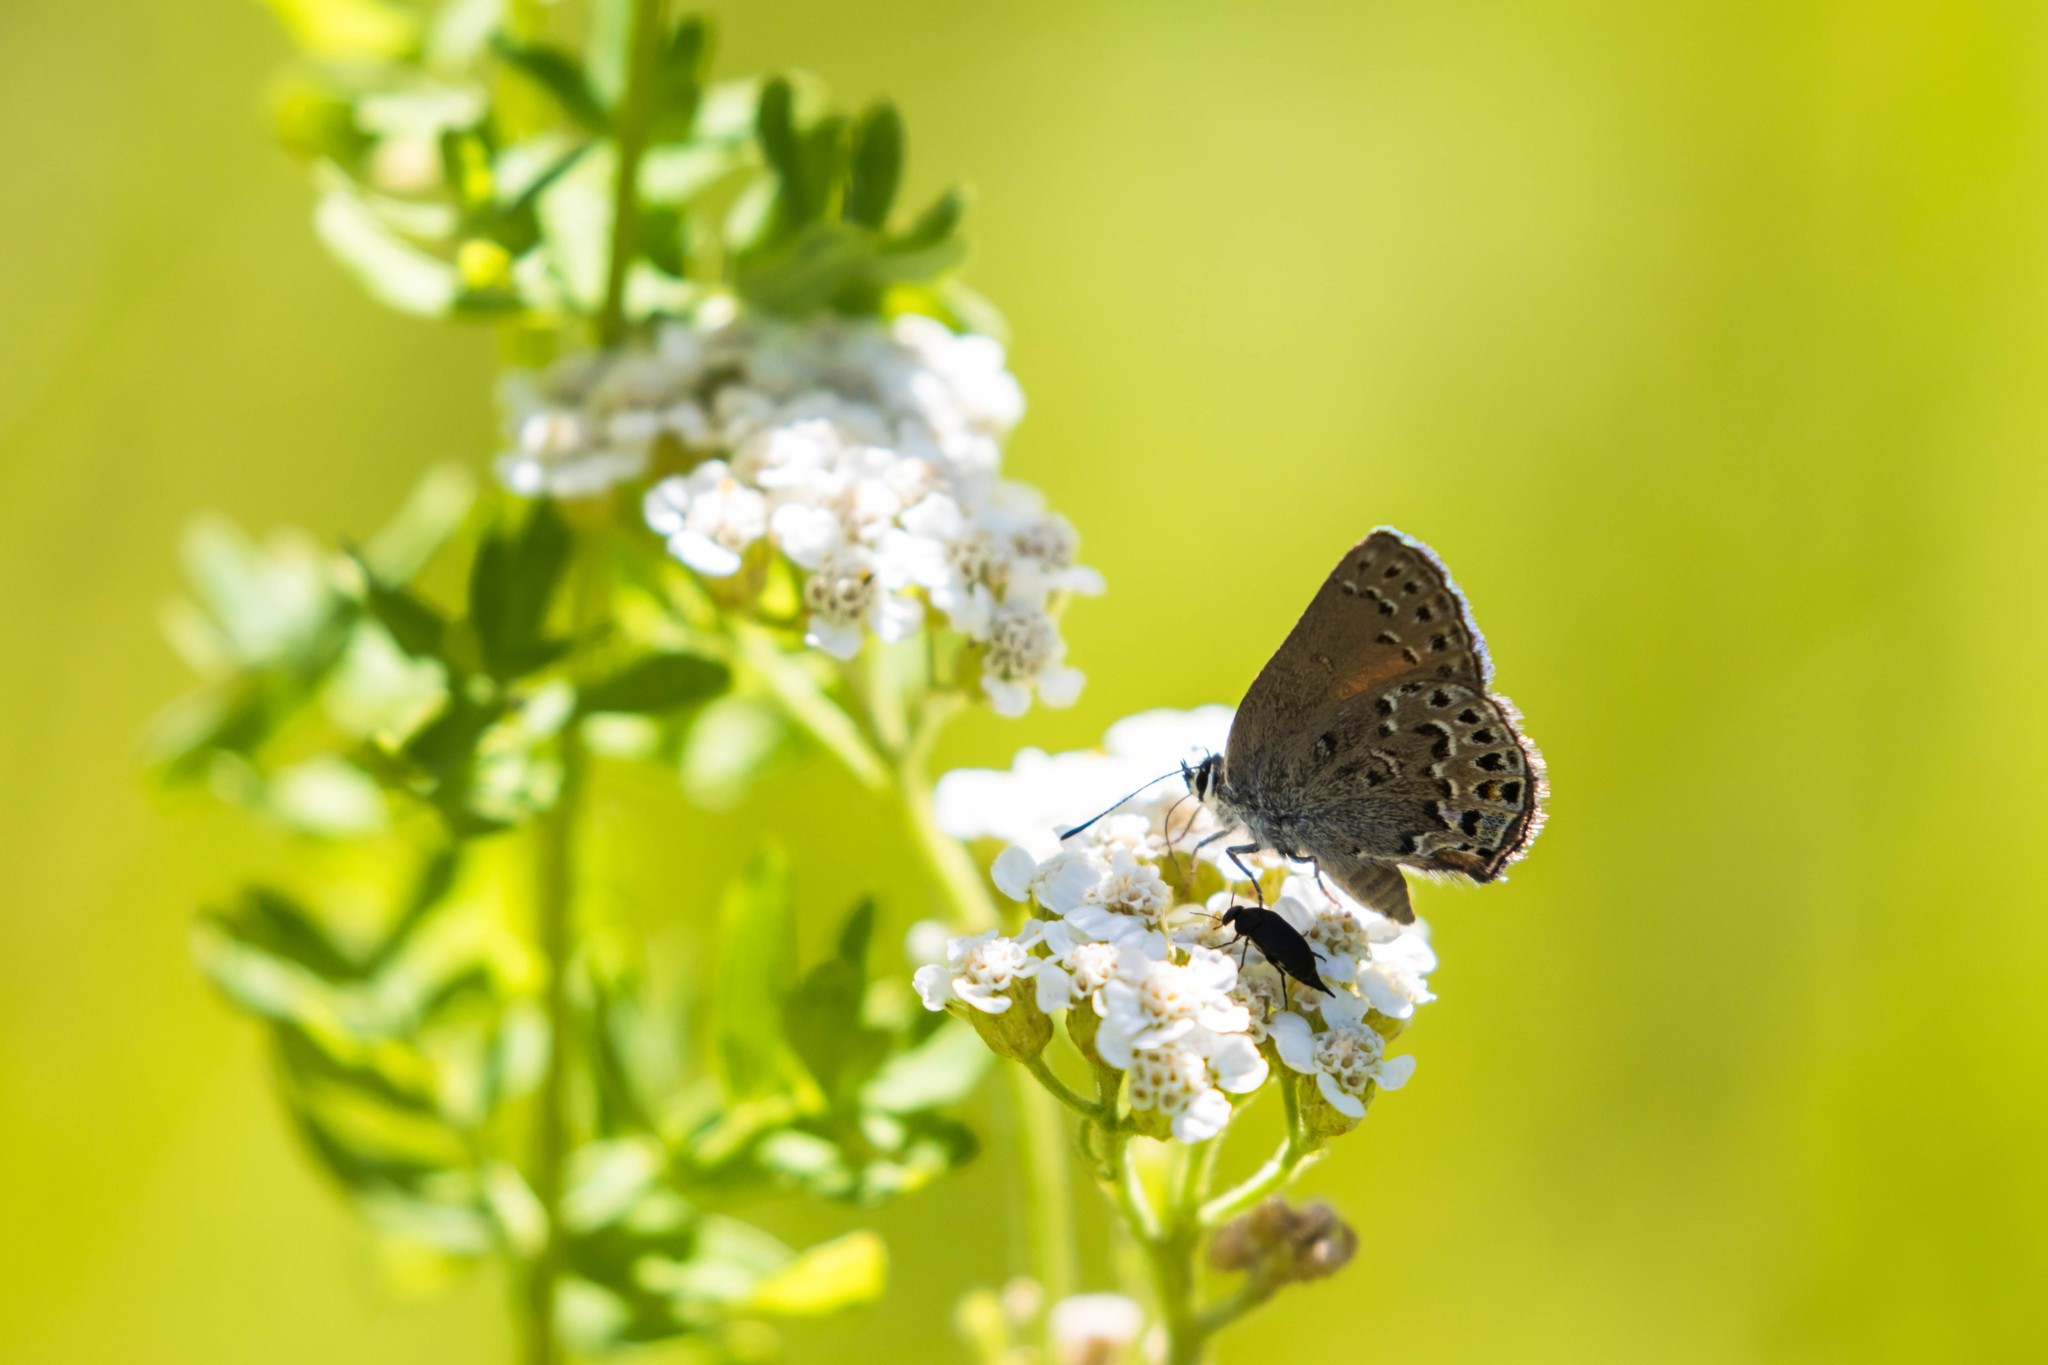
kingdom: Animalia
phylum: Arthropoda
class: Insecta
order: Lepidoptera
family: Lycaenidae
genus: Satyrium
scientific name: Satyrium behrii
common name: Behr's hairstreak
